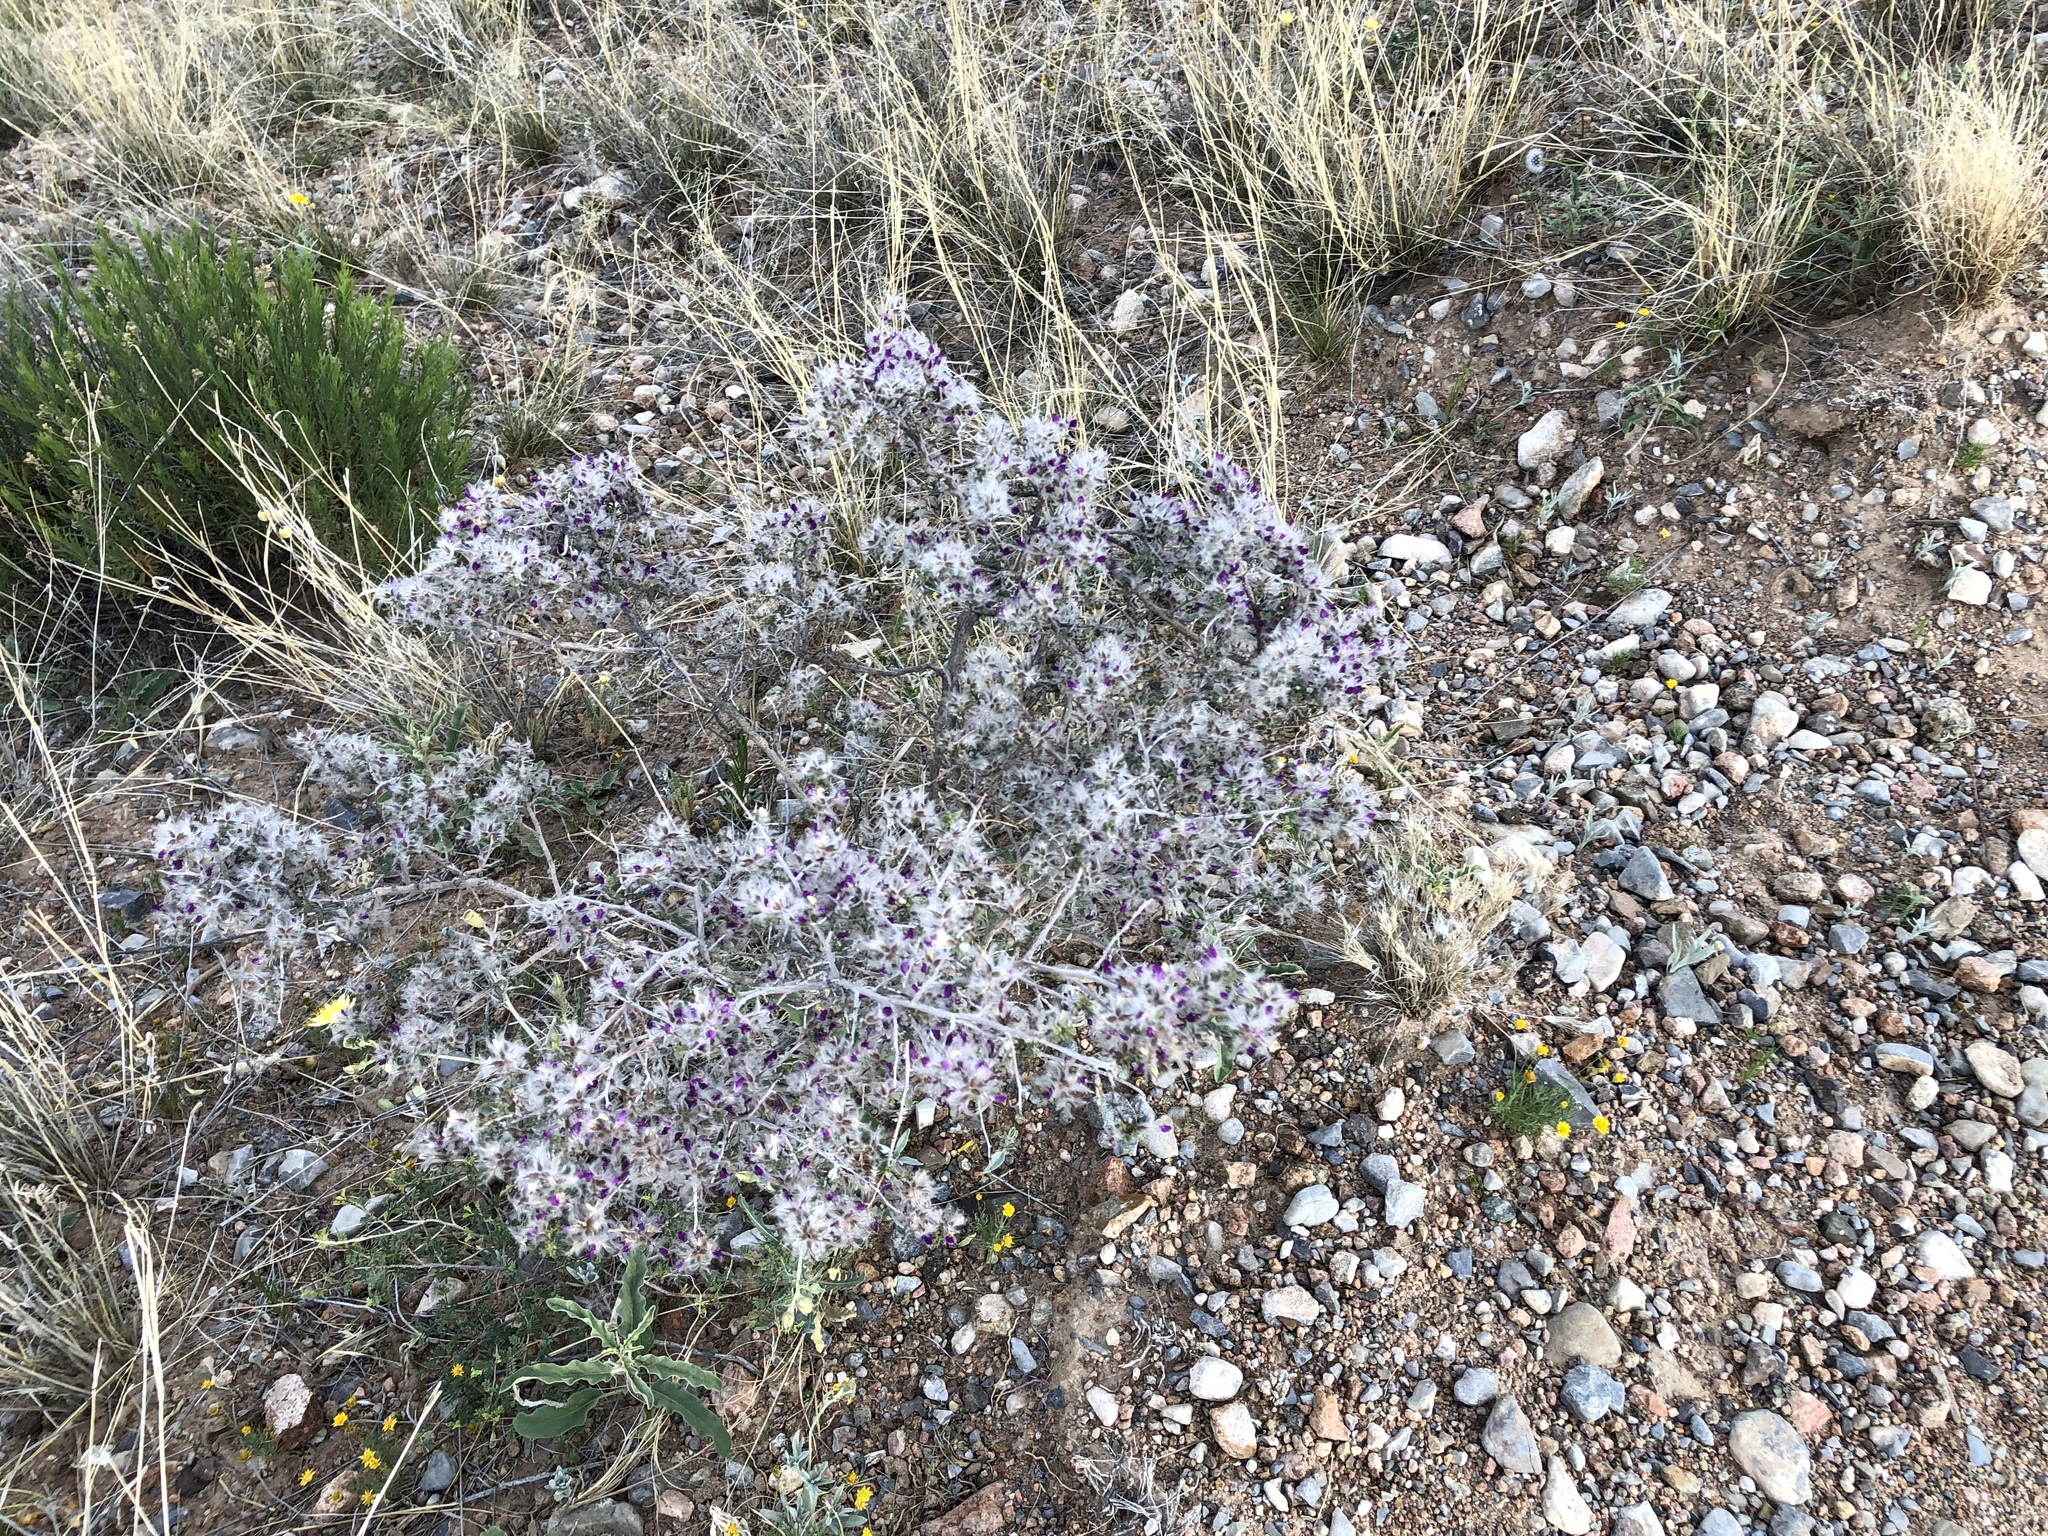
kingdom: Plantae
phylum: Tracheophyta
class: Magnoliopsida
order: Fabales
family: Fabaceae
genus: Dalea
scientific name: Dalea formosa
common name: Feather-plume dalea
